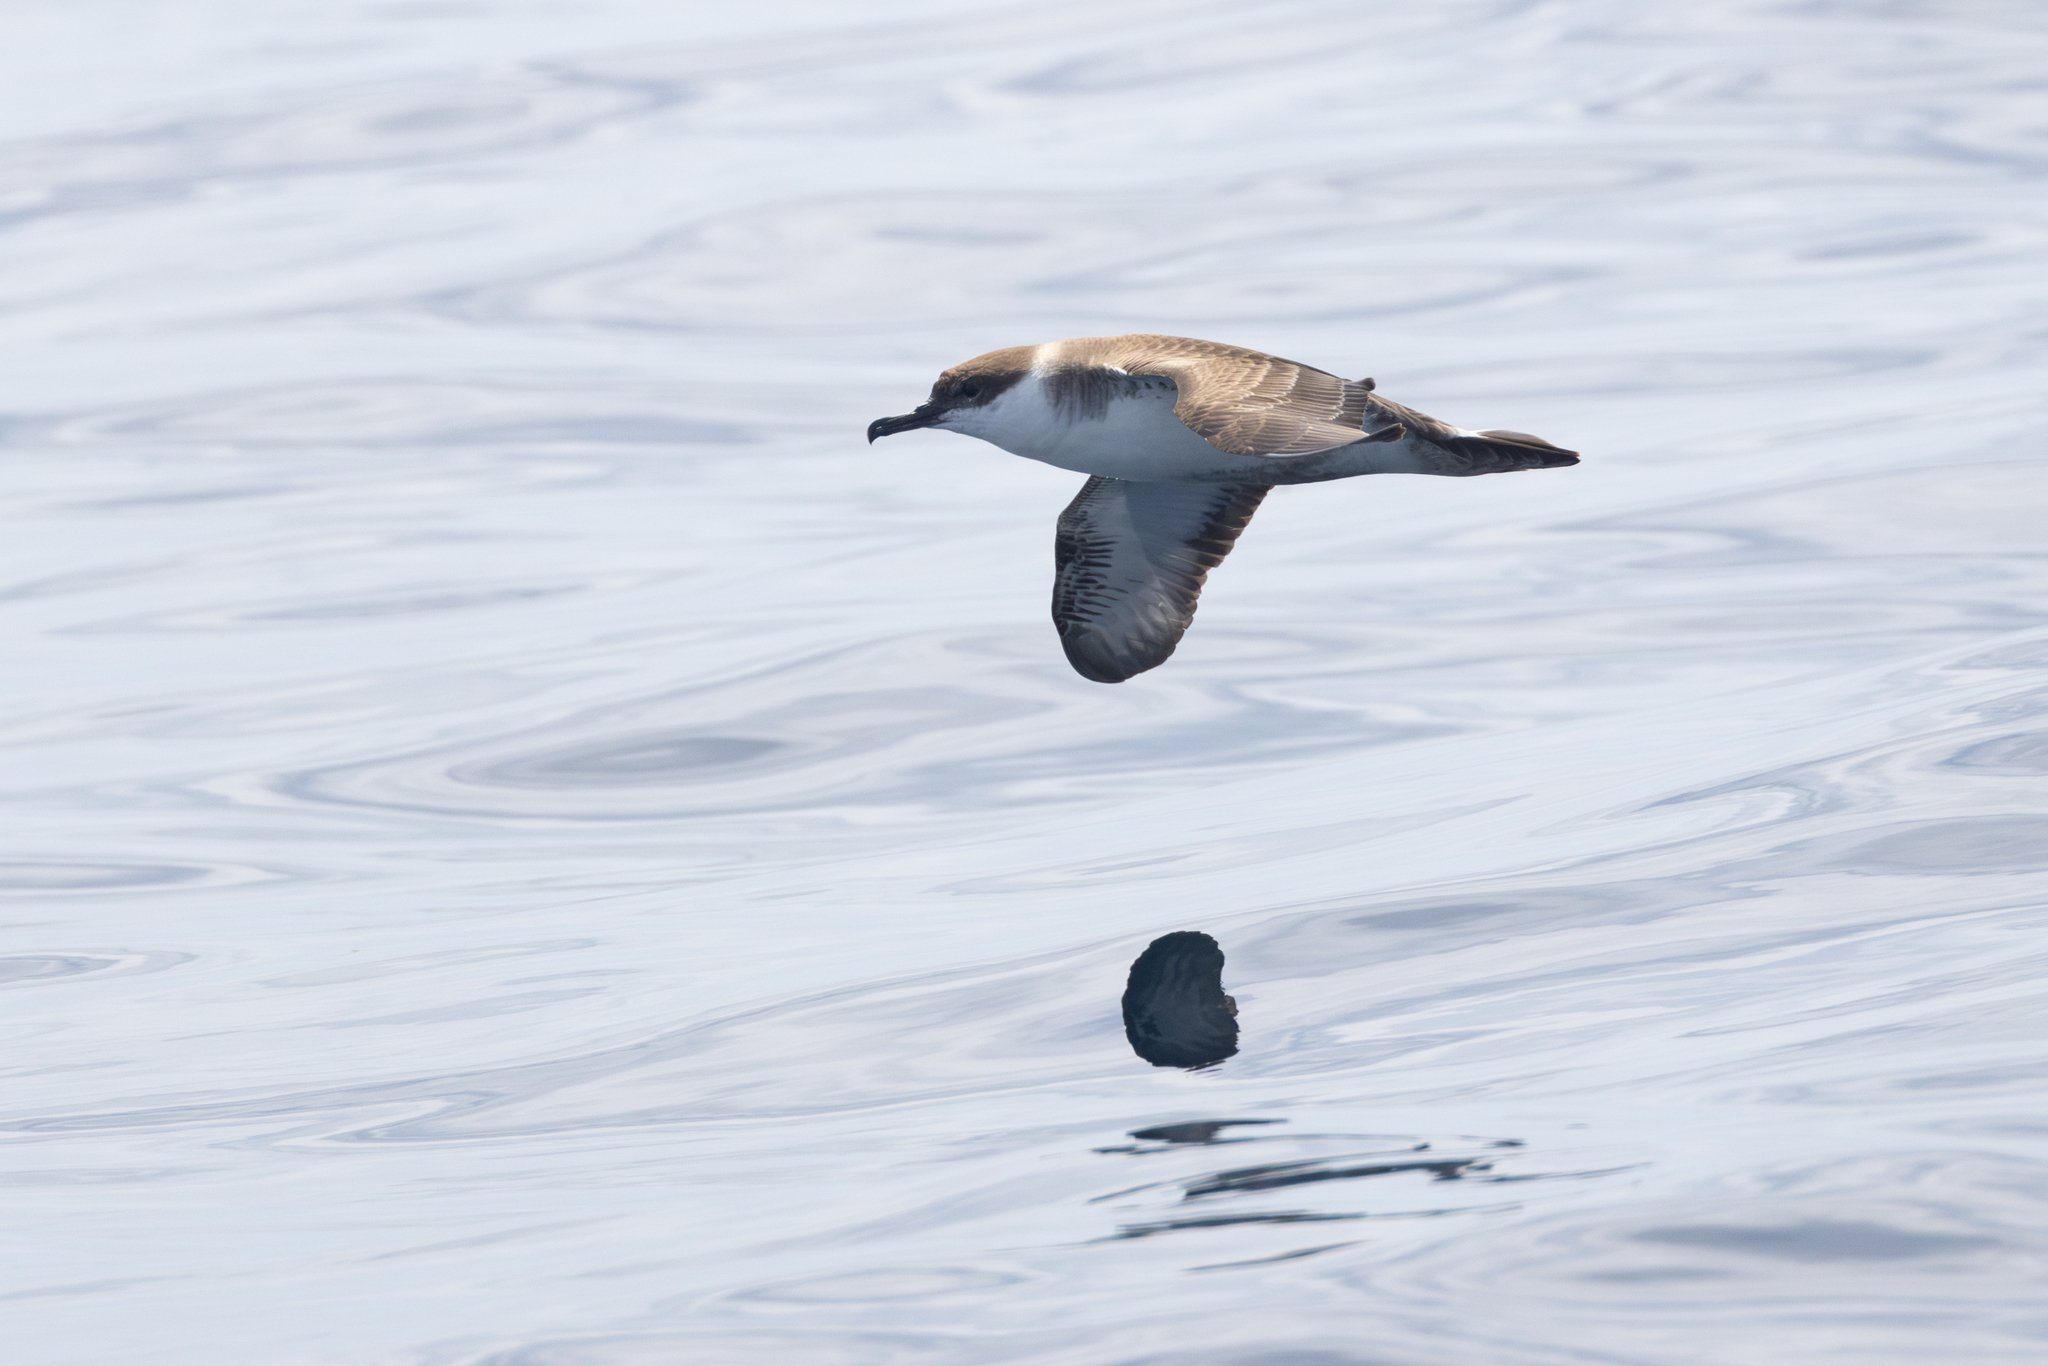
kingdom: Animalia
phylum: Chordata
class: Aves
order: Procellariiformes
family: Procellariidae
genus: Puffinus
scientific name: Puffinus gravis
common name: Great shearwater
